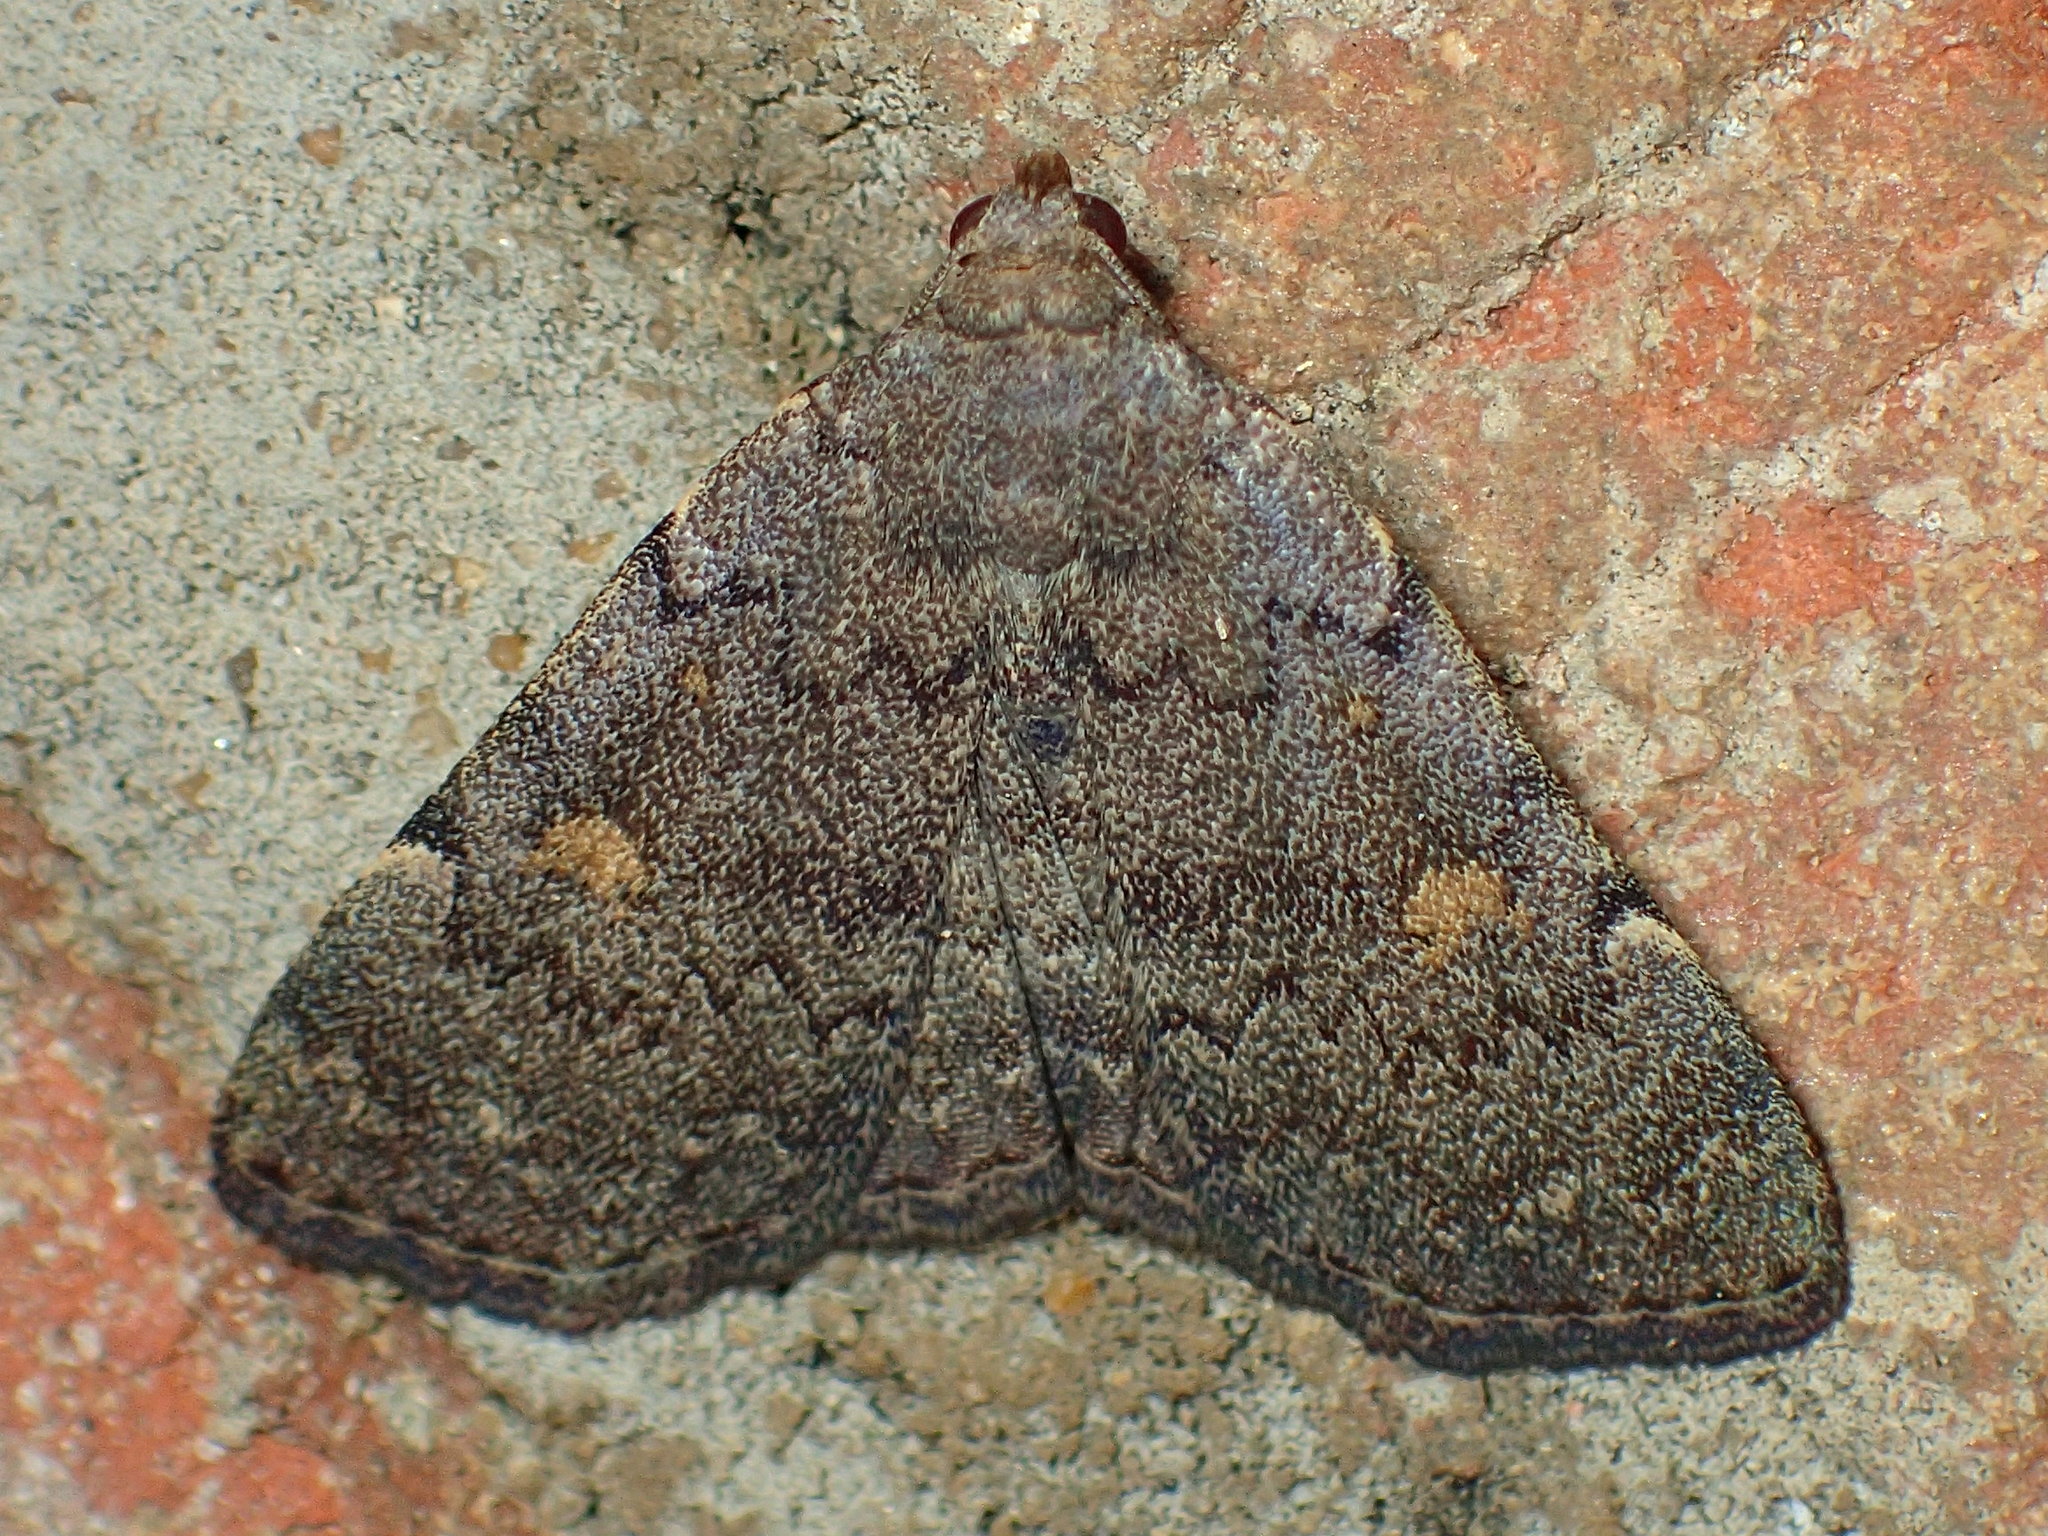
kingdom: Animalia
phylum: Arthropoda
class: Insecta
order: Lepidoptera
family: Erebidae
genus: Idia
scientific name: Idia aemula
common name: Common idia moth
